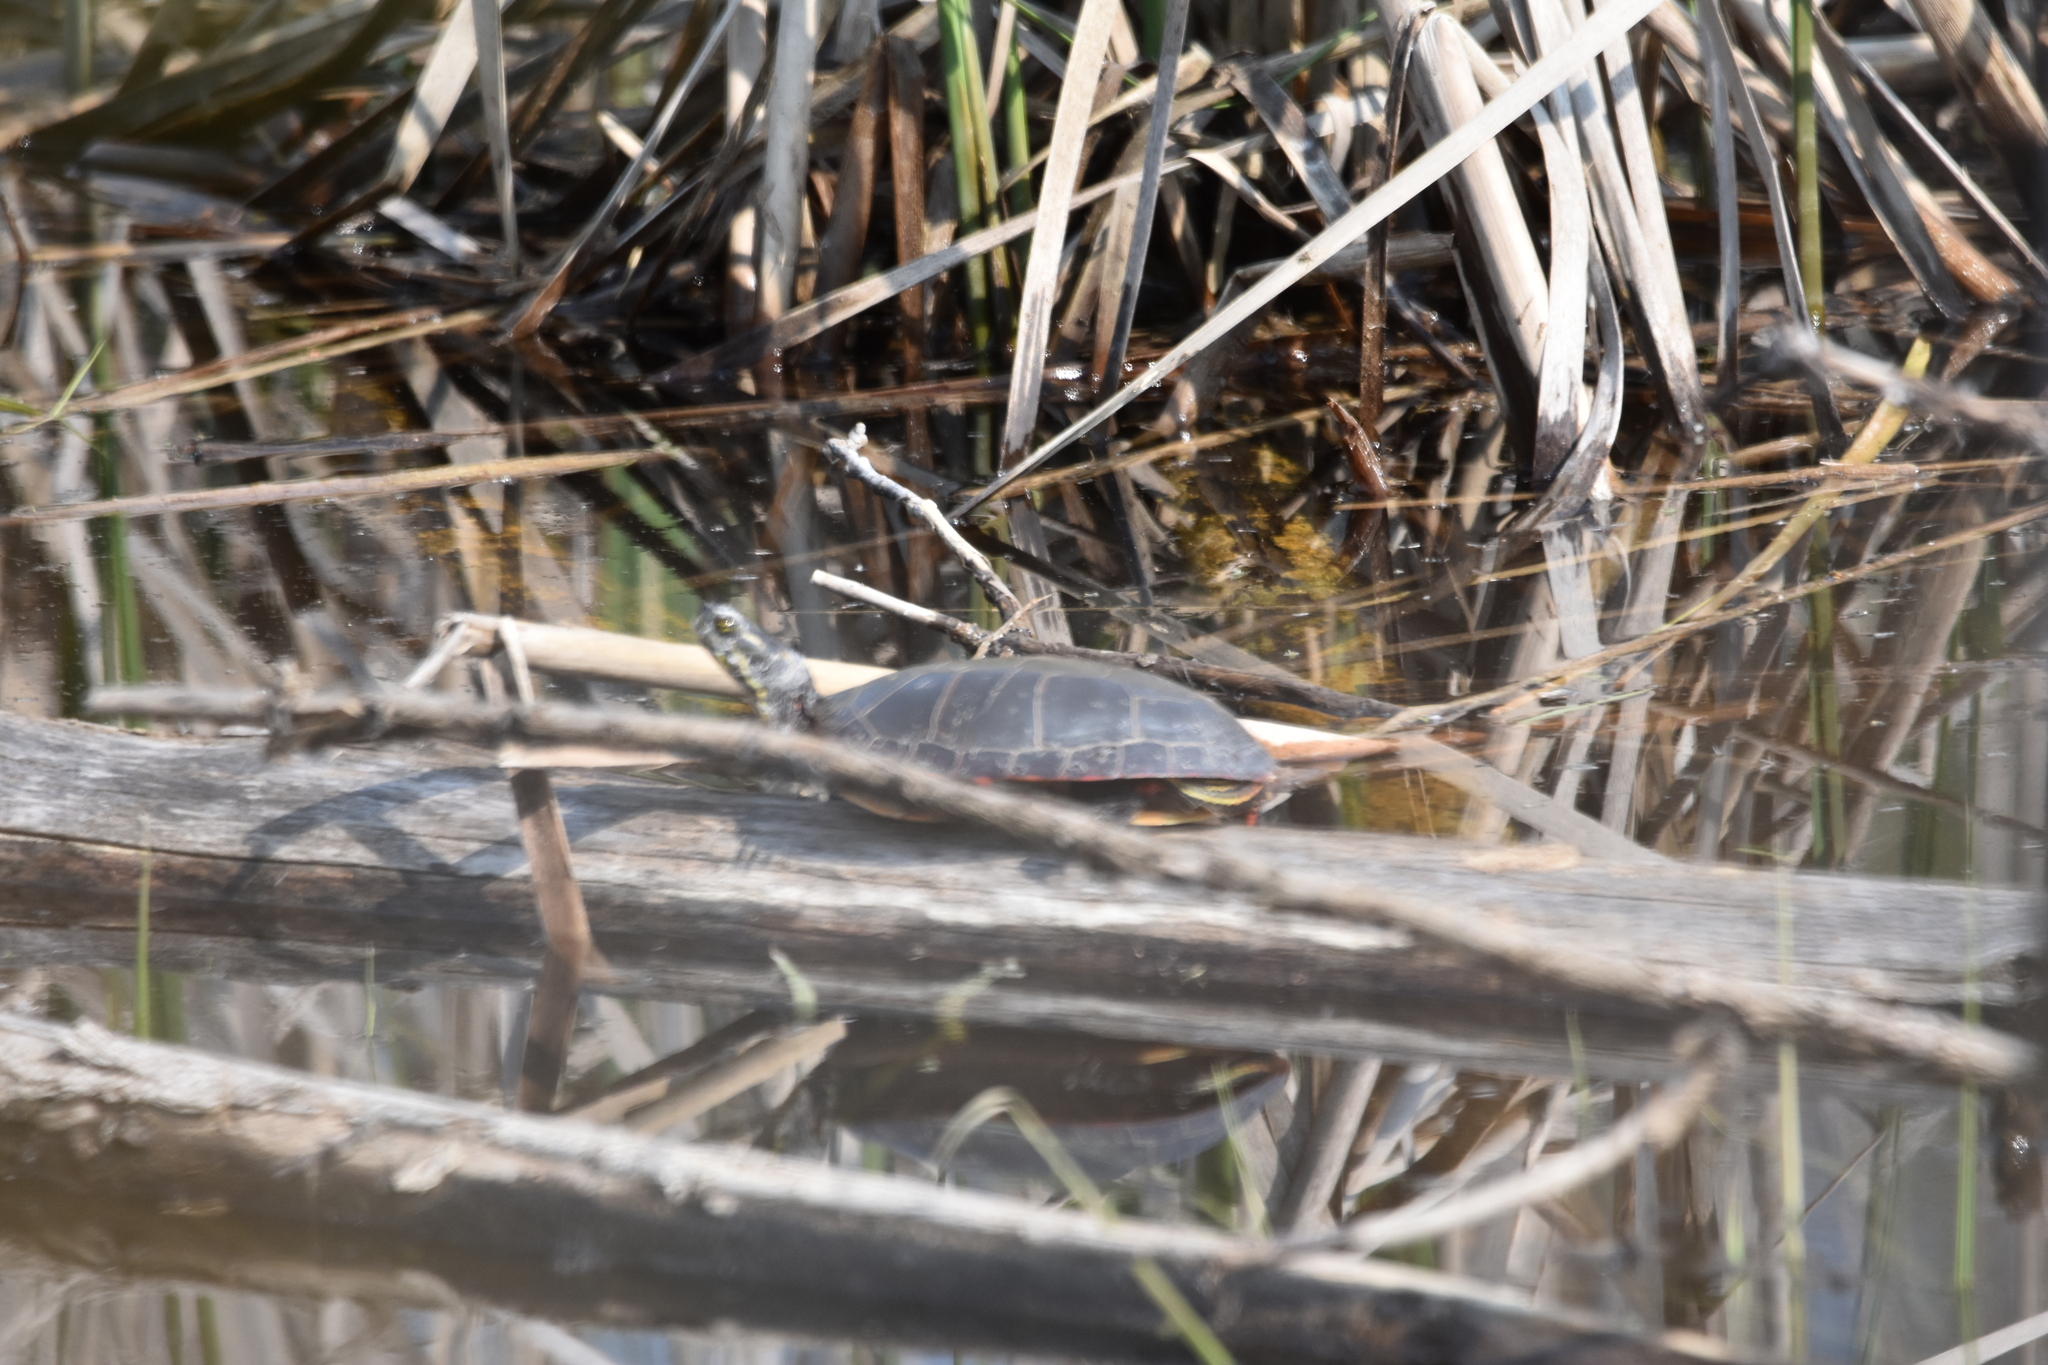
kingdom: Animalia
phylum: Chordata
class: Testudines
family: Emydidae
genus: Chrysemys
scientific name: Chrysemys picta
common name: Painted turtle
